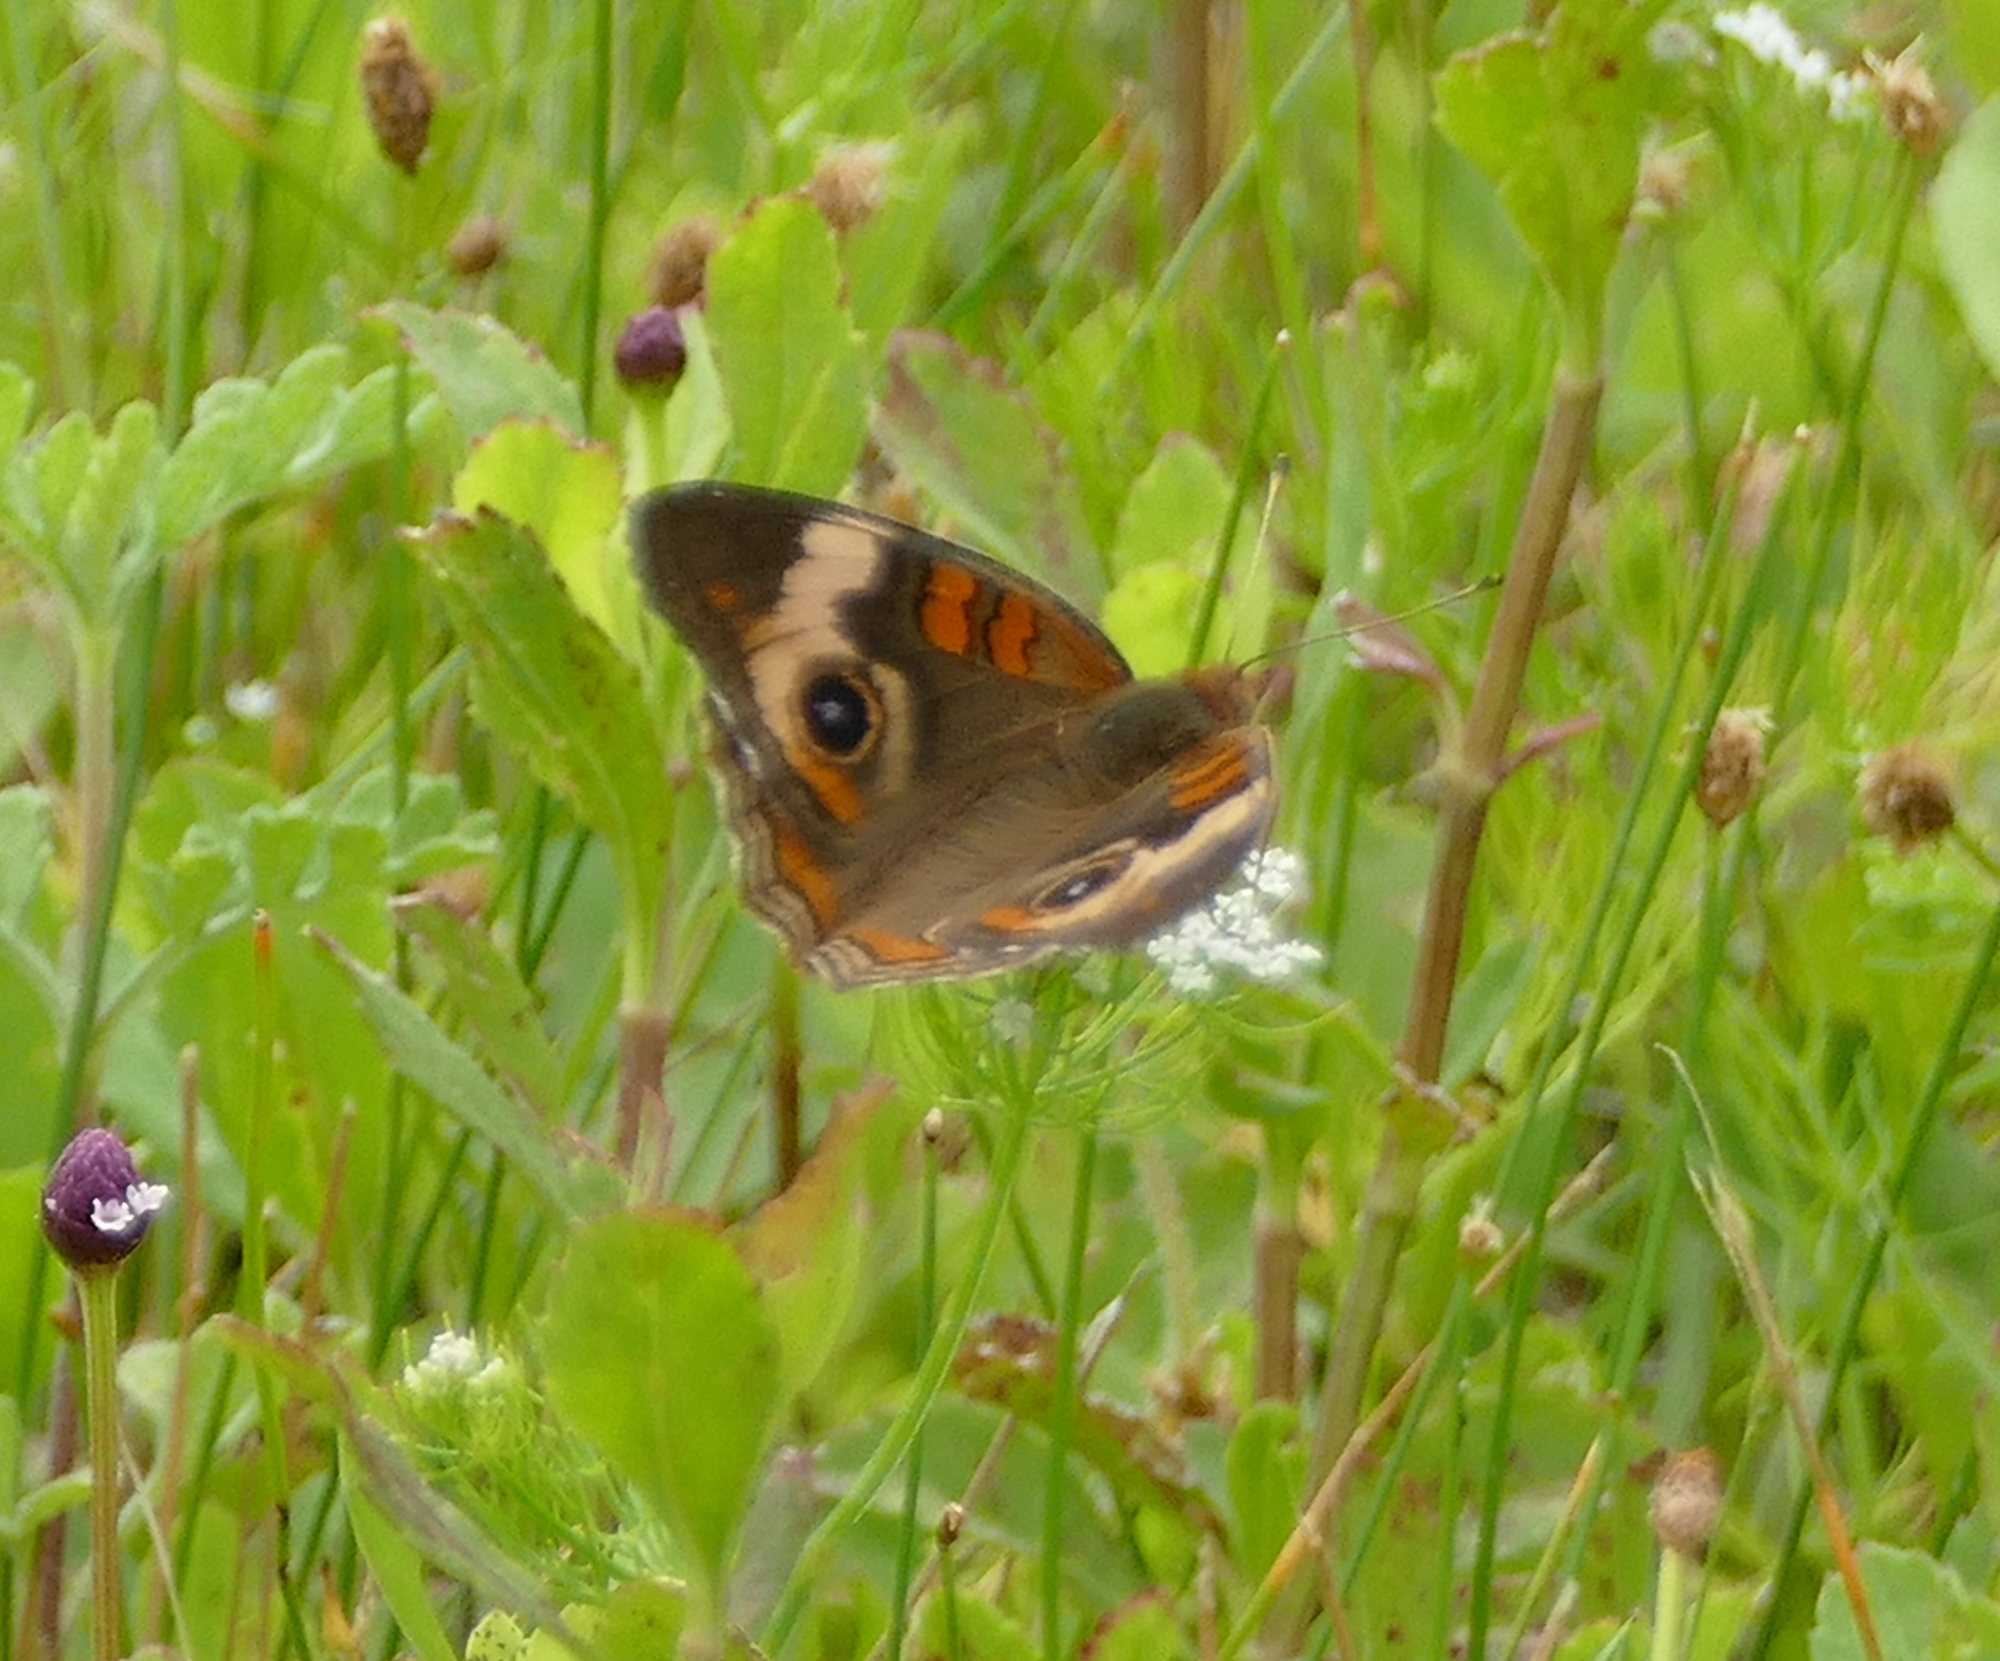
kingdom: Animalia
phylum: Arthropoda
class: Insecta
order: Lepidoptera
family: Nymphalidae
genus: Junonia
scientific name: Junonia coenia
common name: Common buckeye
